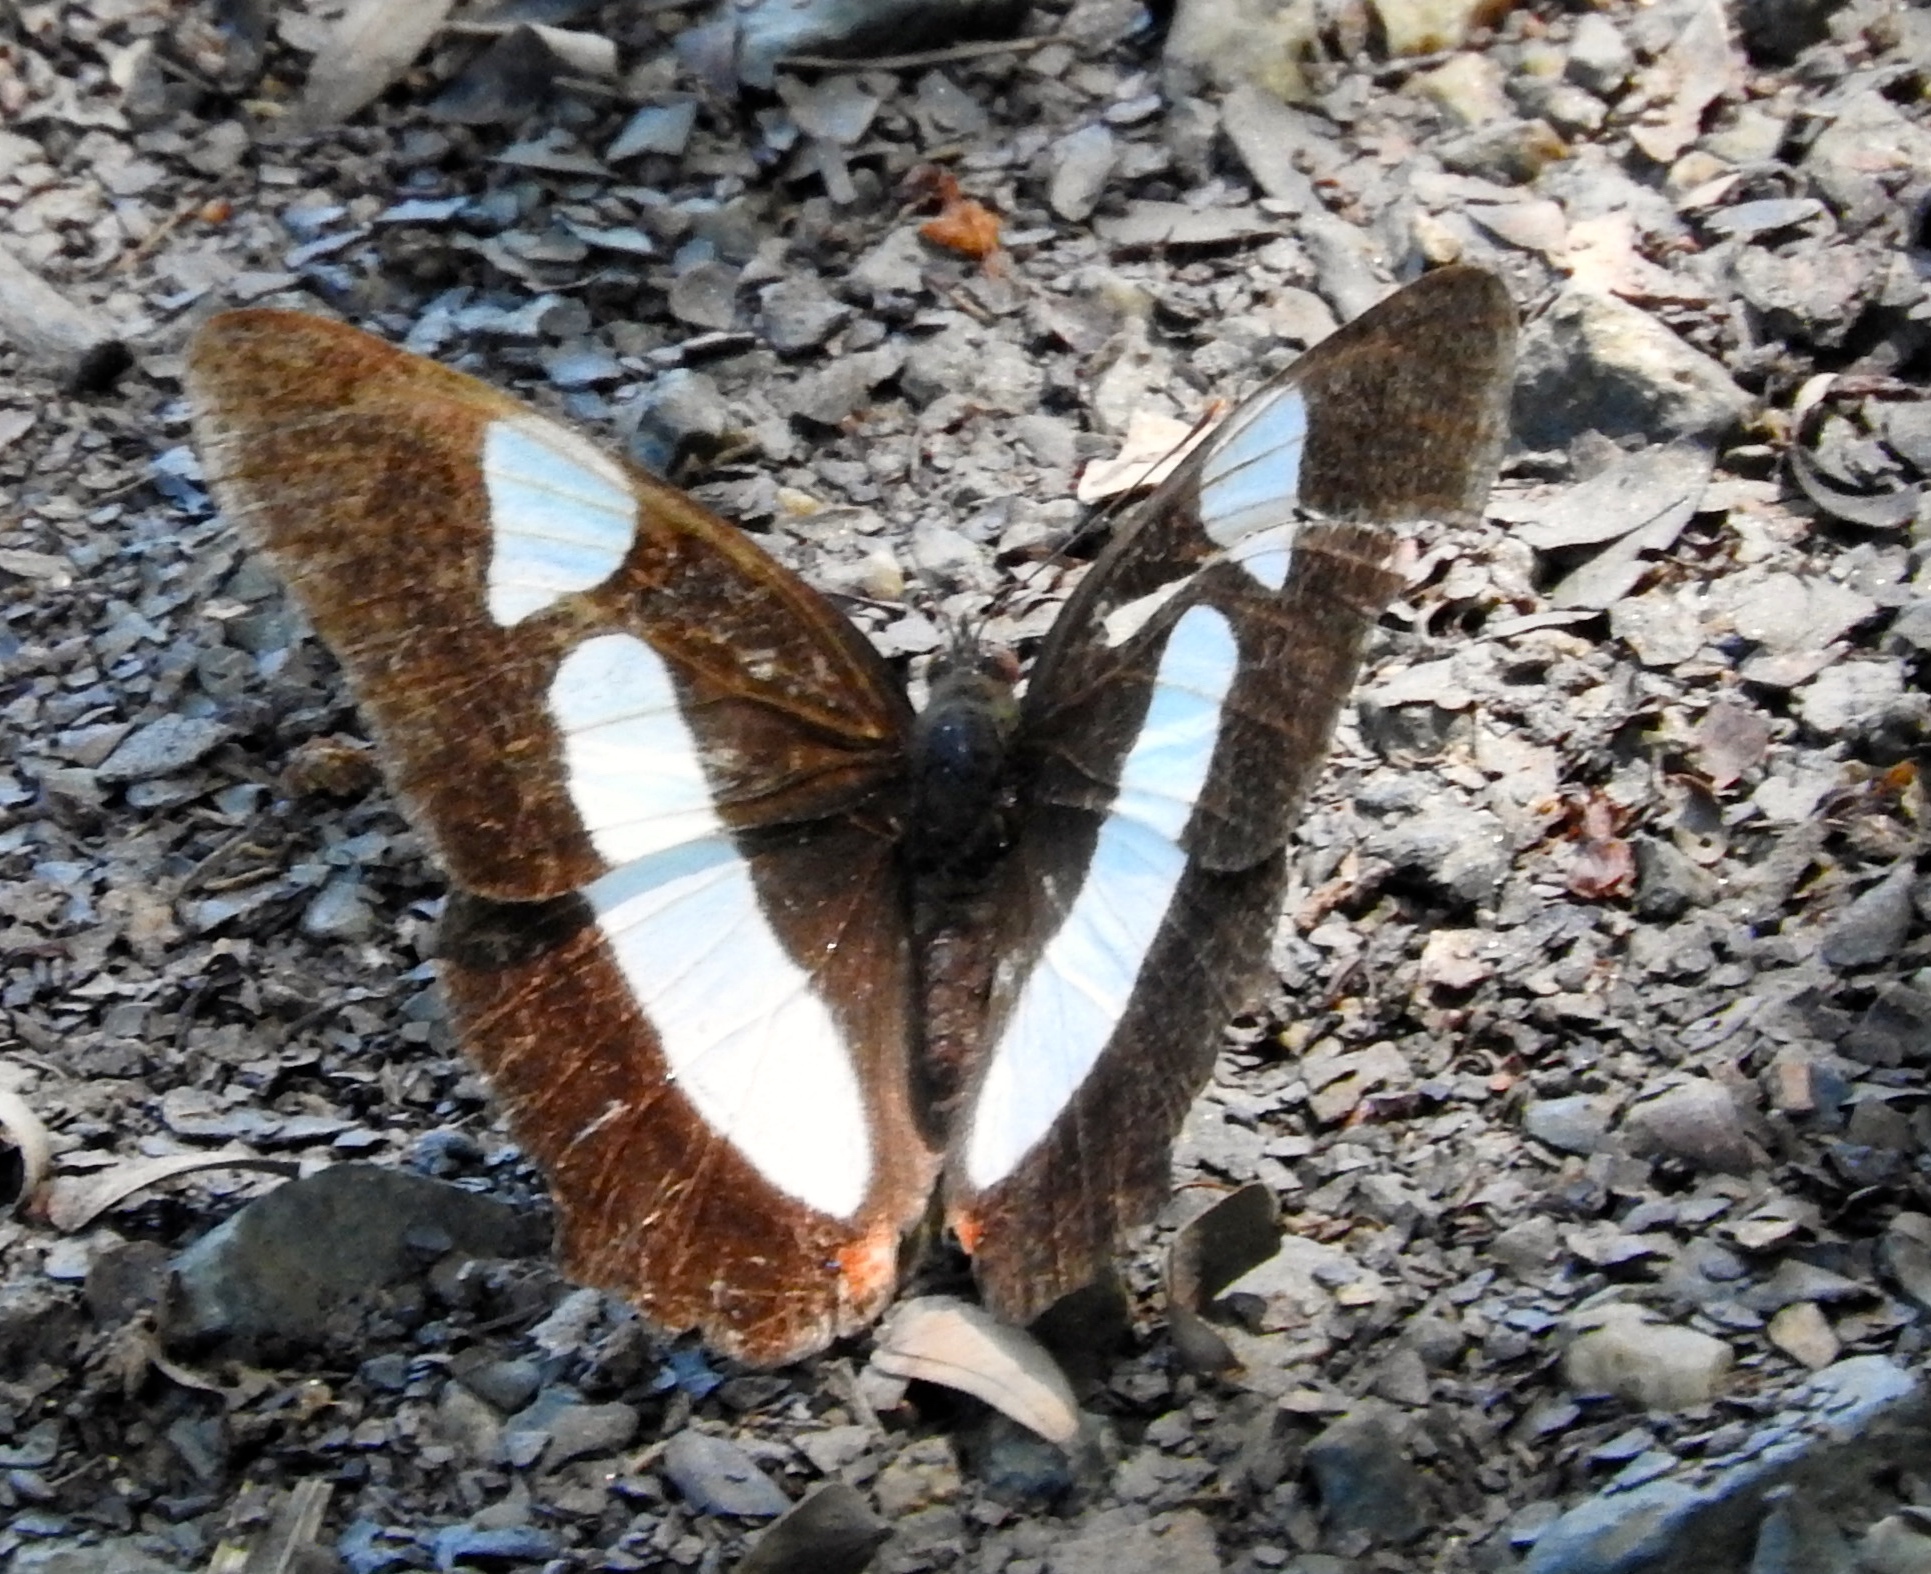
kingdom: Animalia
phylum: Arthropoda
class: Insecta
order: Lepidoptera
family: Nymphalidae
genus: Pyrrhogyra
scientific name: Pyrrhogyra neaerea
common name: Leading red-ring
